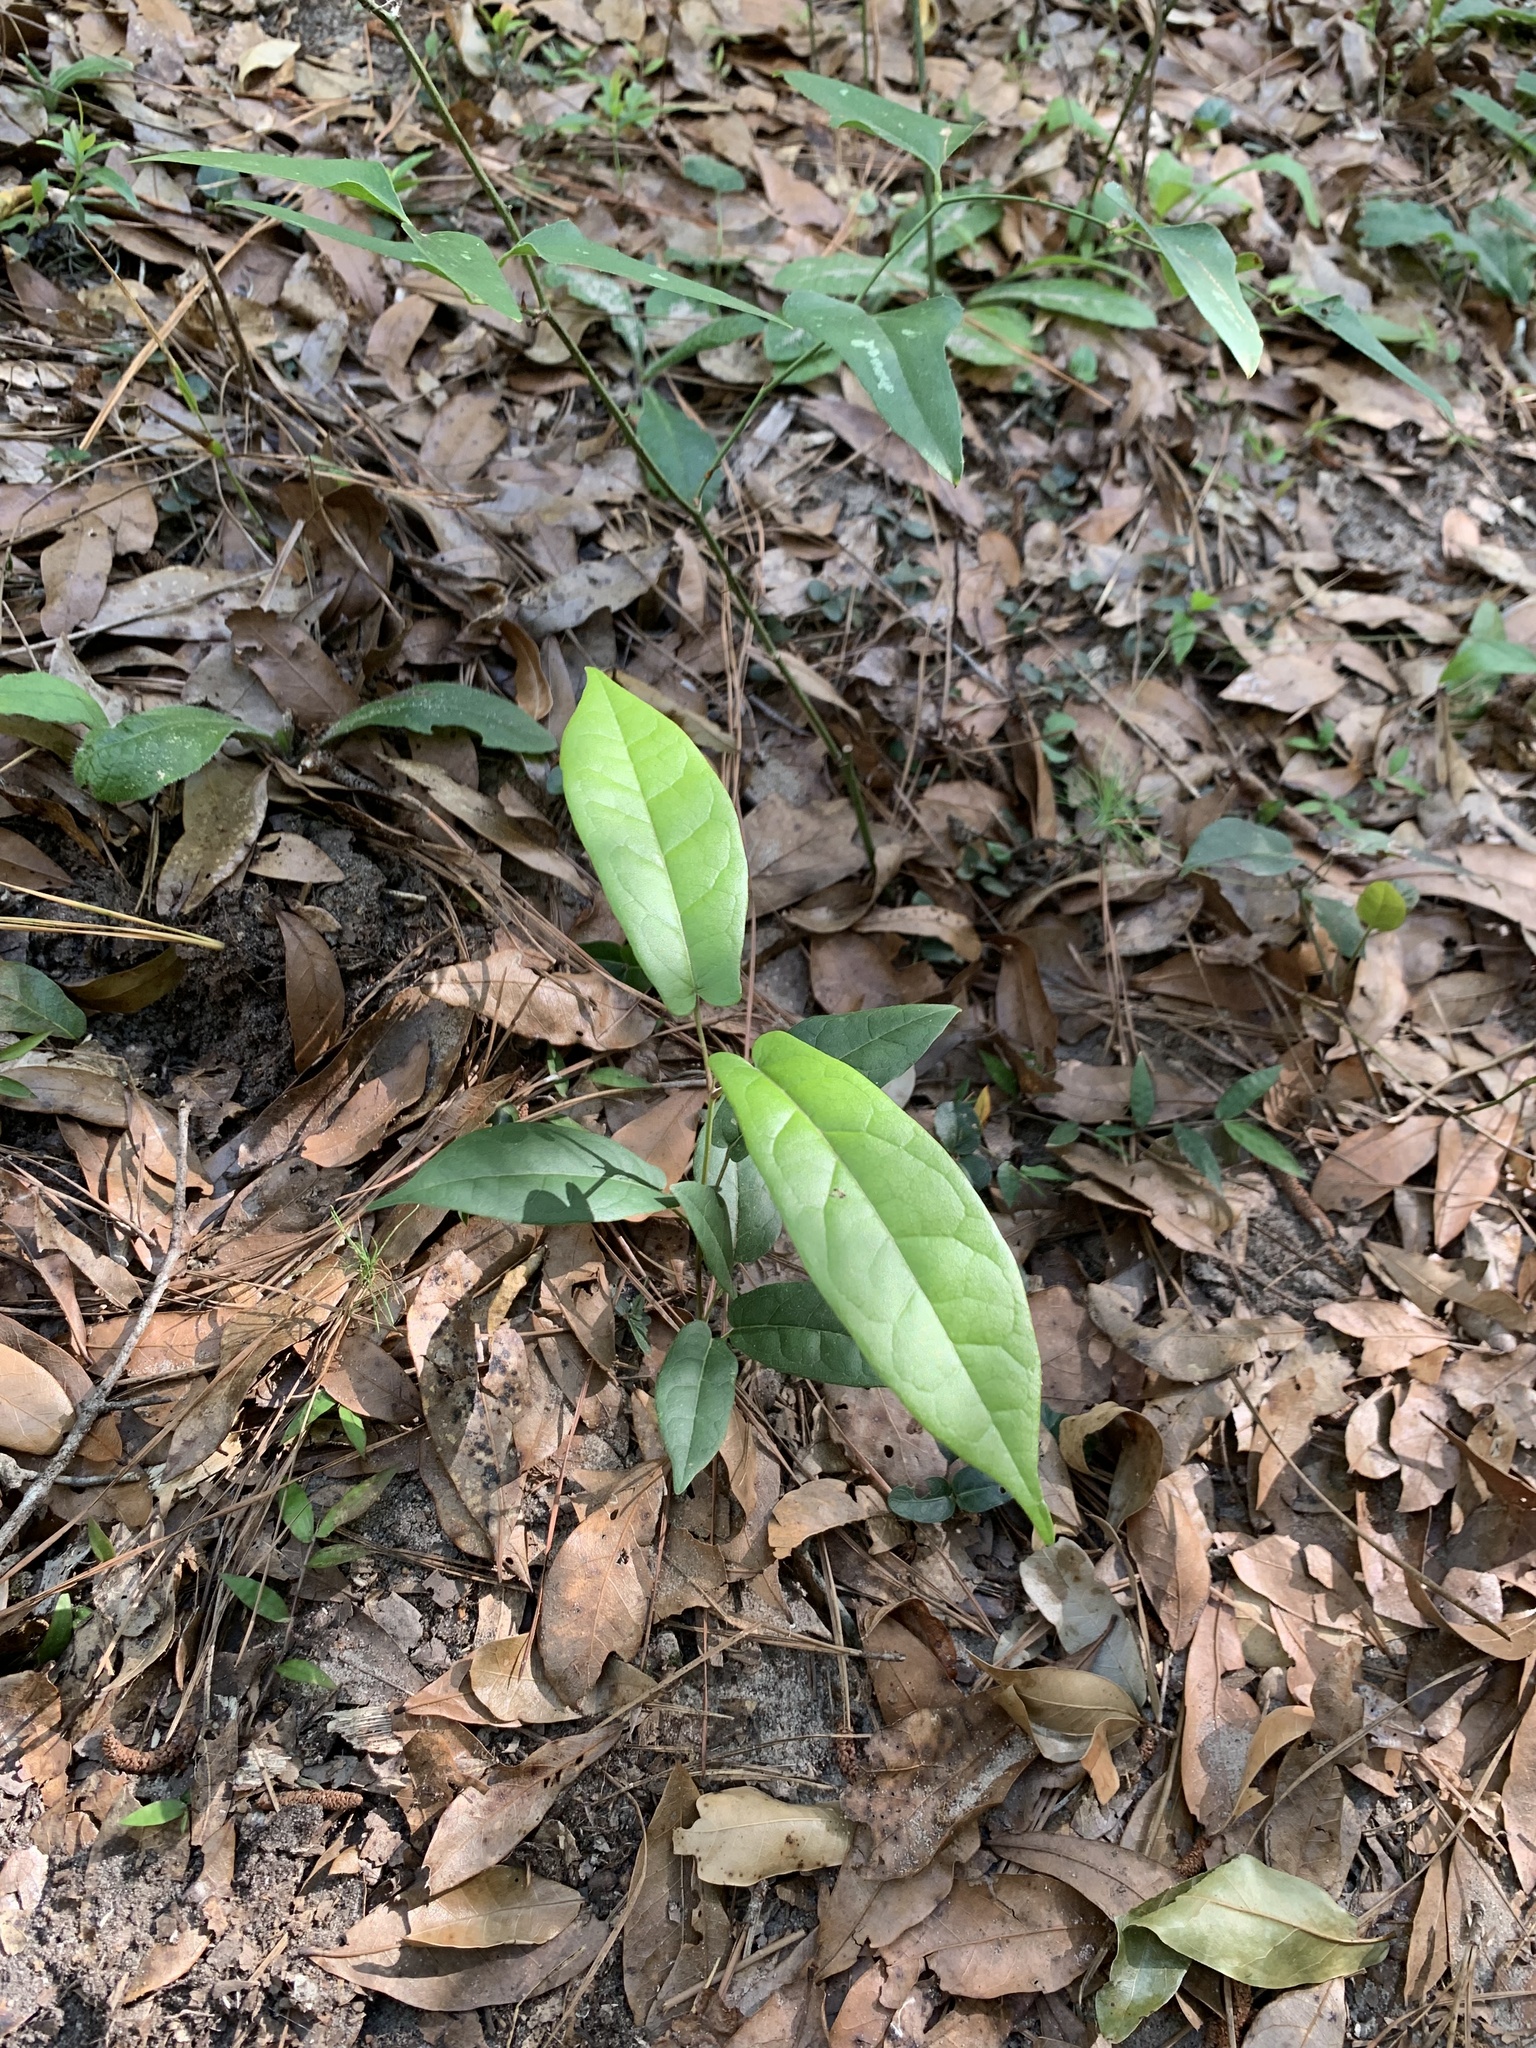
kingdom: Plantae
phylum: Tracheophyta
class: Magnoliopsida
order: Lamiales
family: Bignoniaceae
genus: Bignonia
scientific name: Bignonia capreolata
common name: Crossvine
